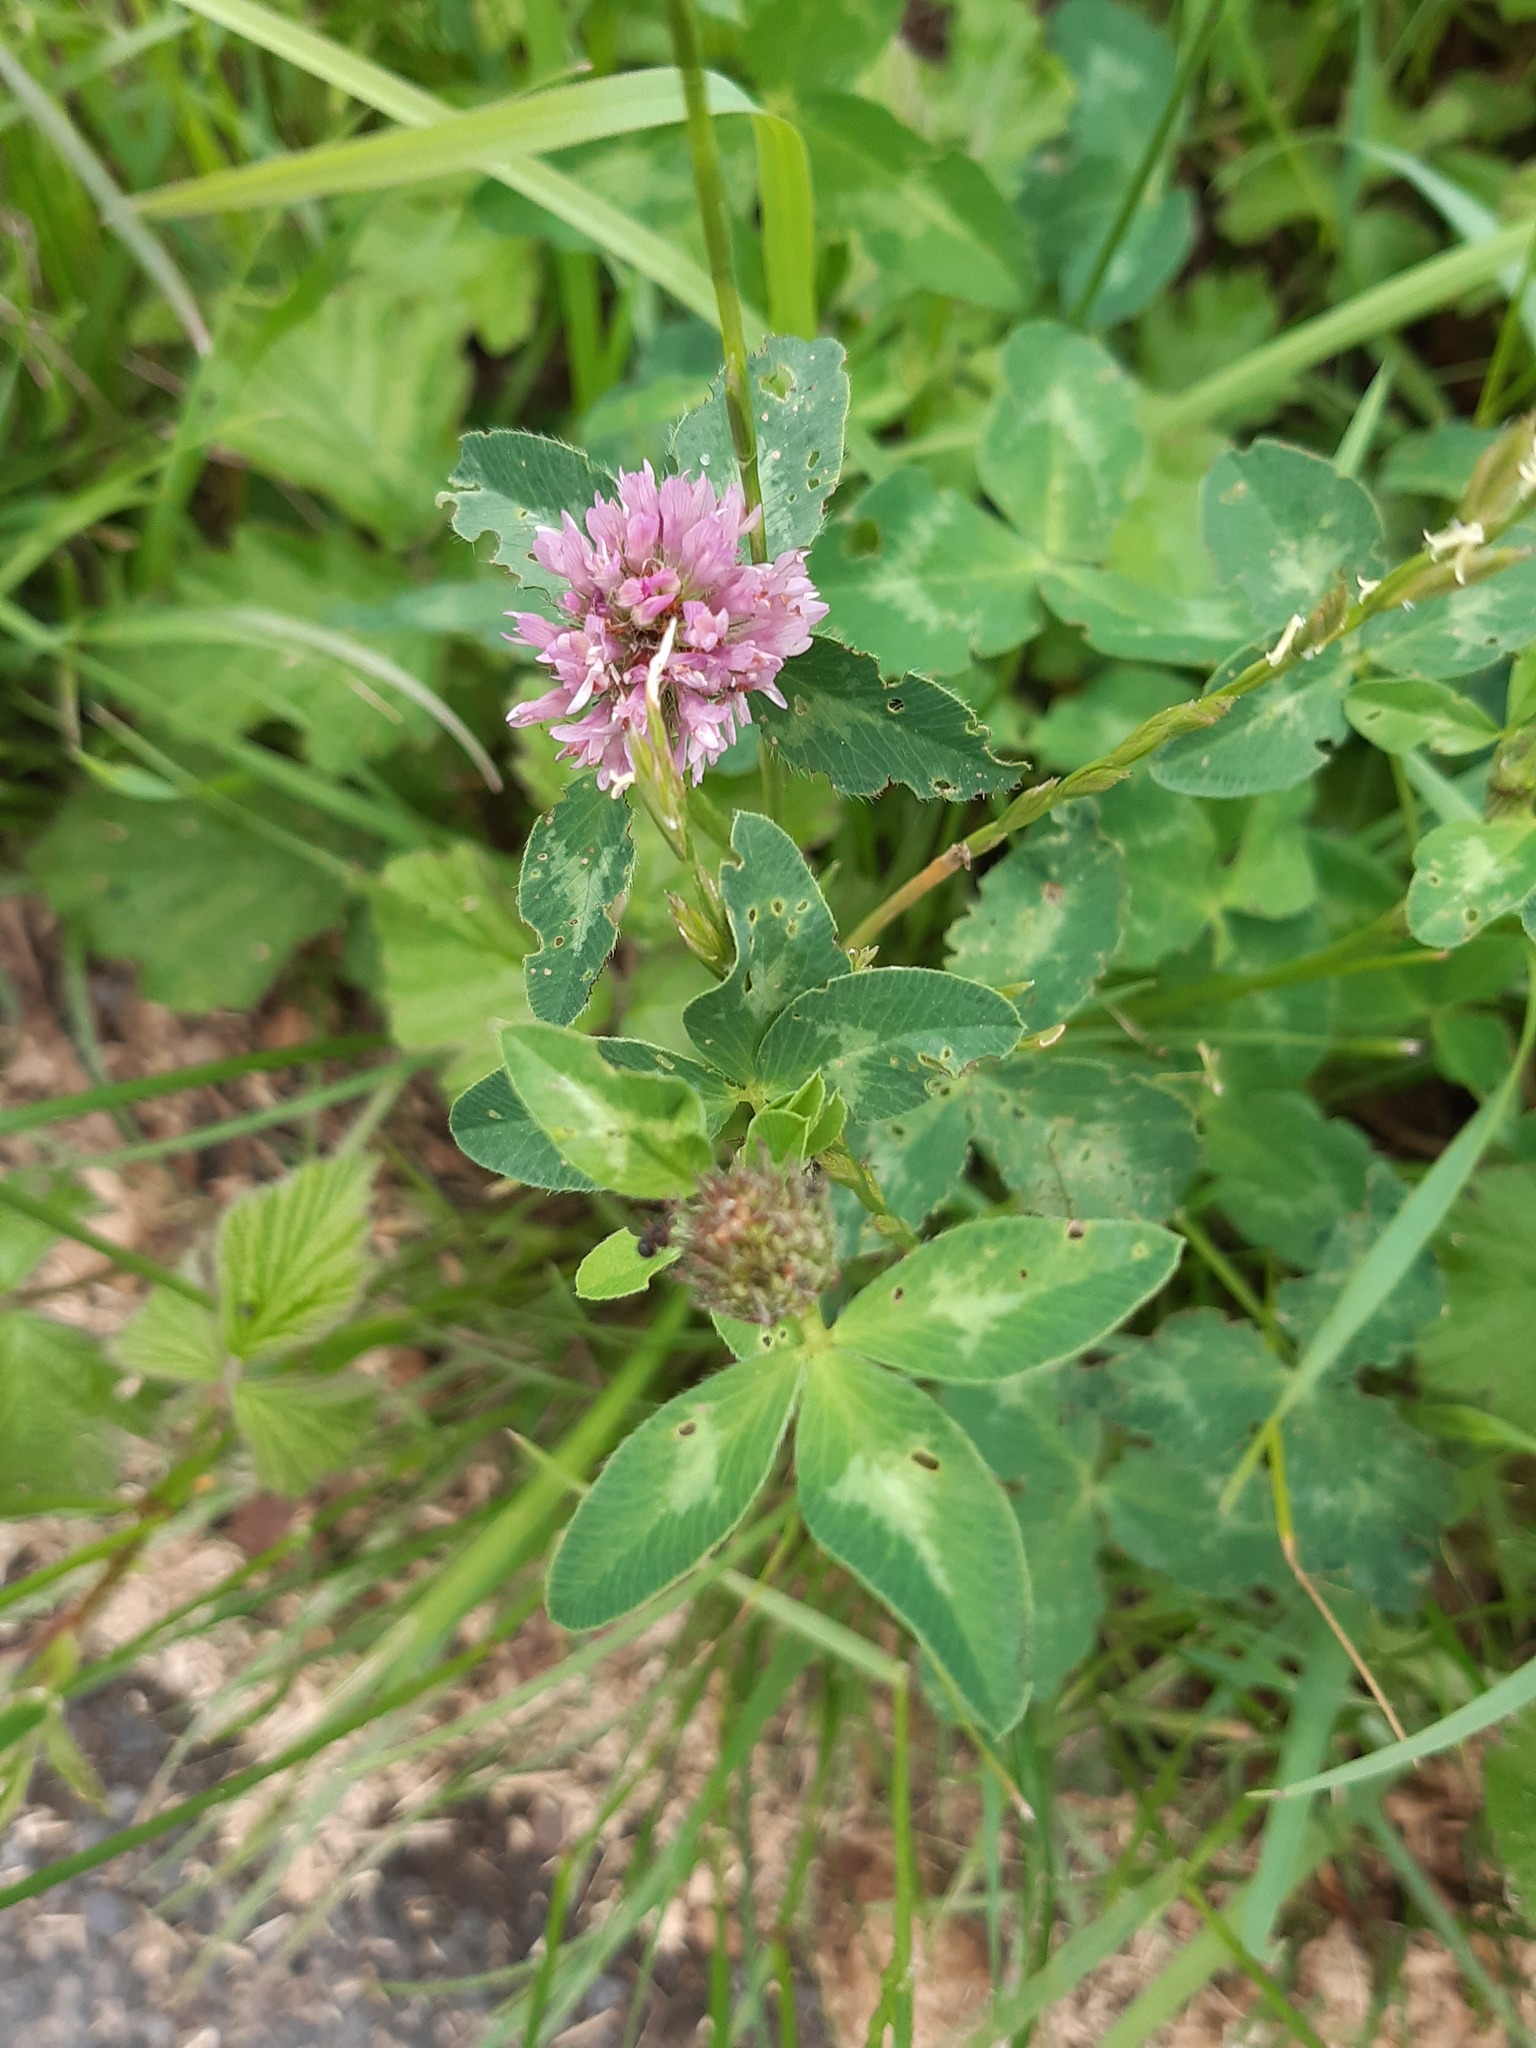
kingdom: Plantae
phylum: Tracheophyta
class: Magnoliopsida
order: Fabales
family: Fabaceae
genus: Trifolium
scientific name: Trifolium pratense
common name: Red clover
